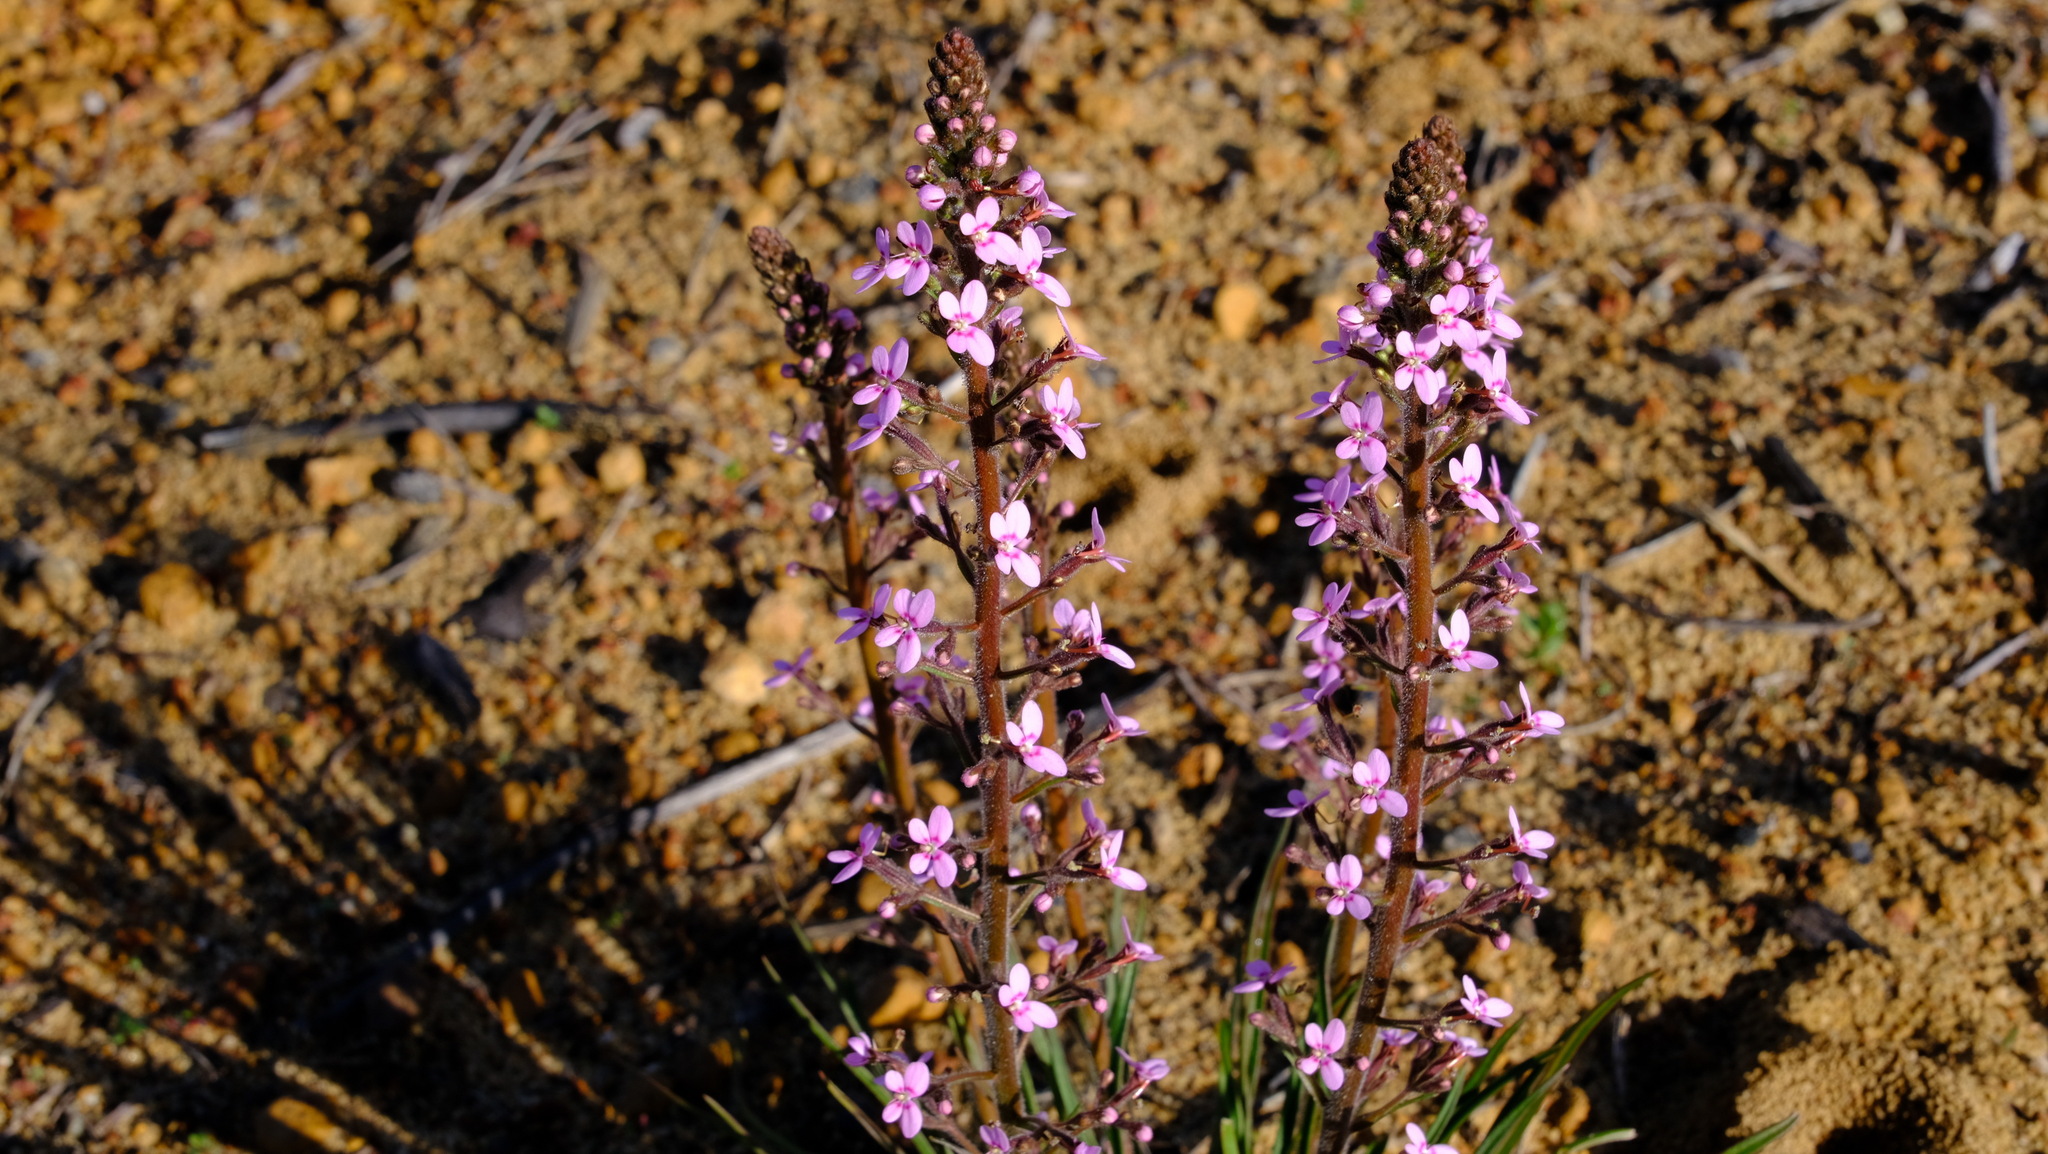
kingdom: Plantae
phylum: Tracheophyta
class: Magnoliopsida
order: Asterales
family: Stylidiaceae
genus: Stylidium
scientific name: Stylidium elongatum
